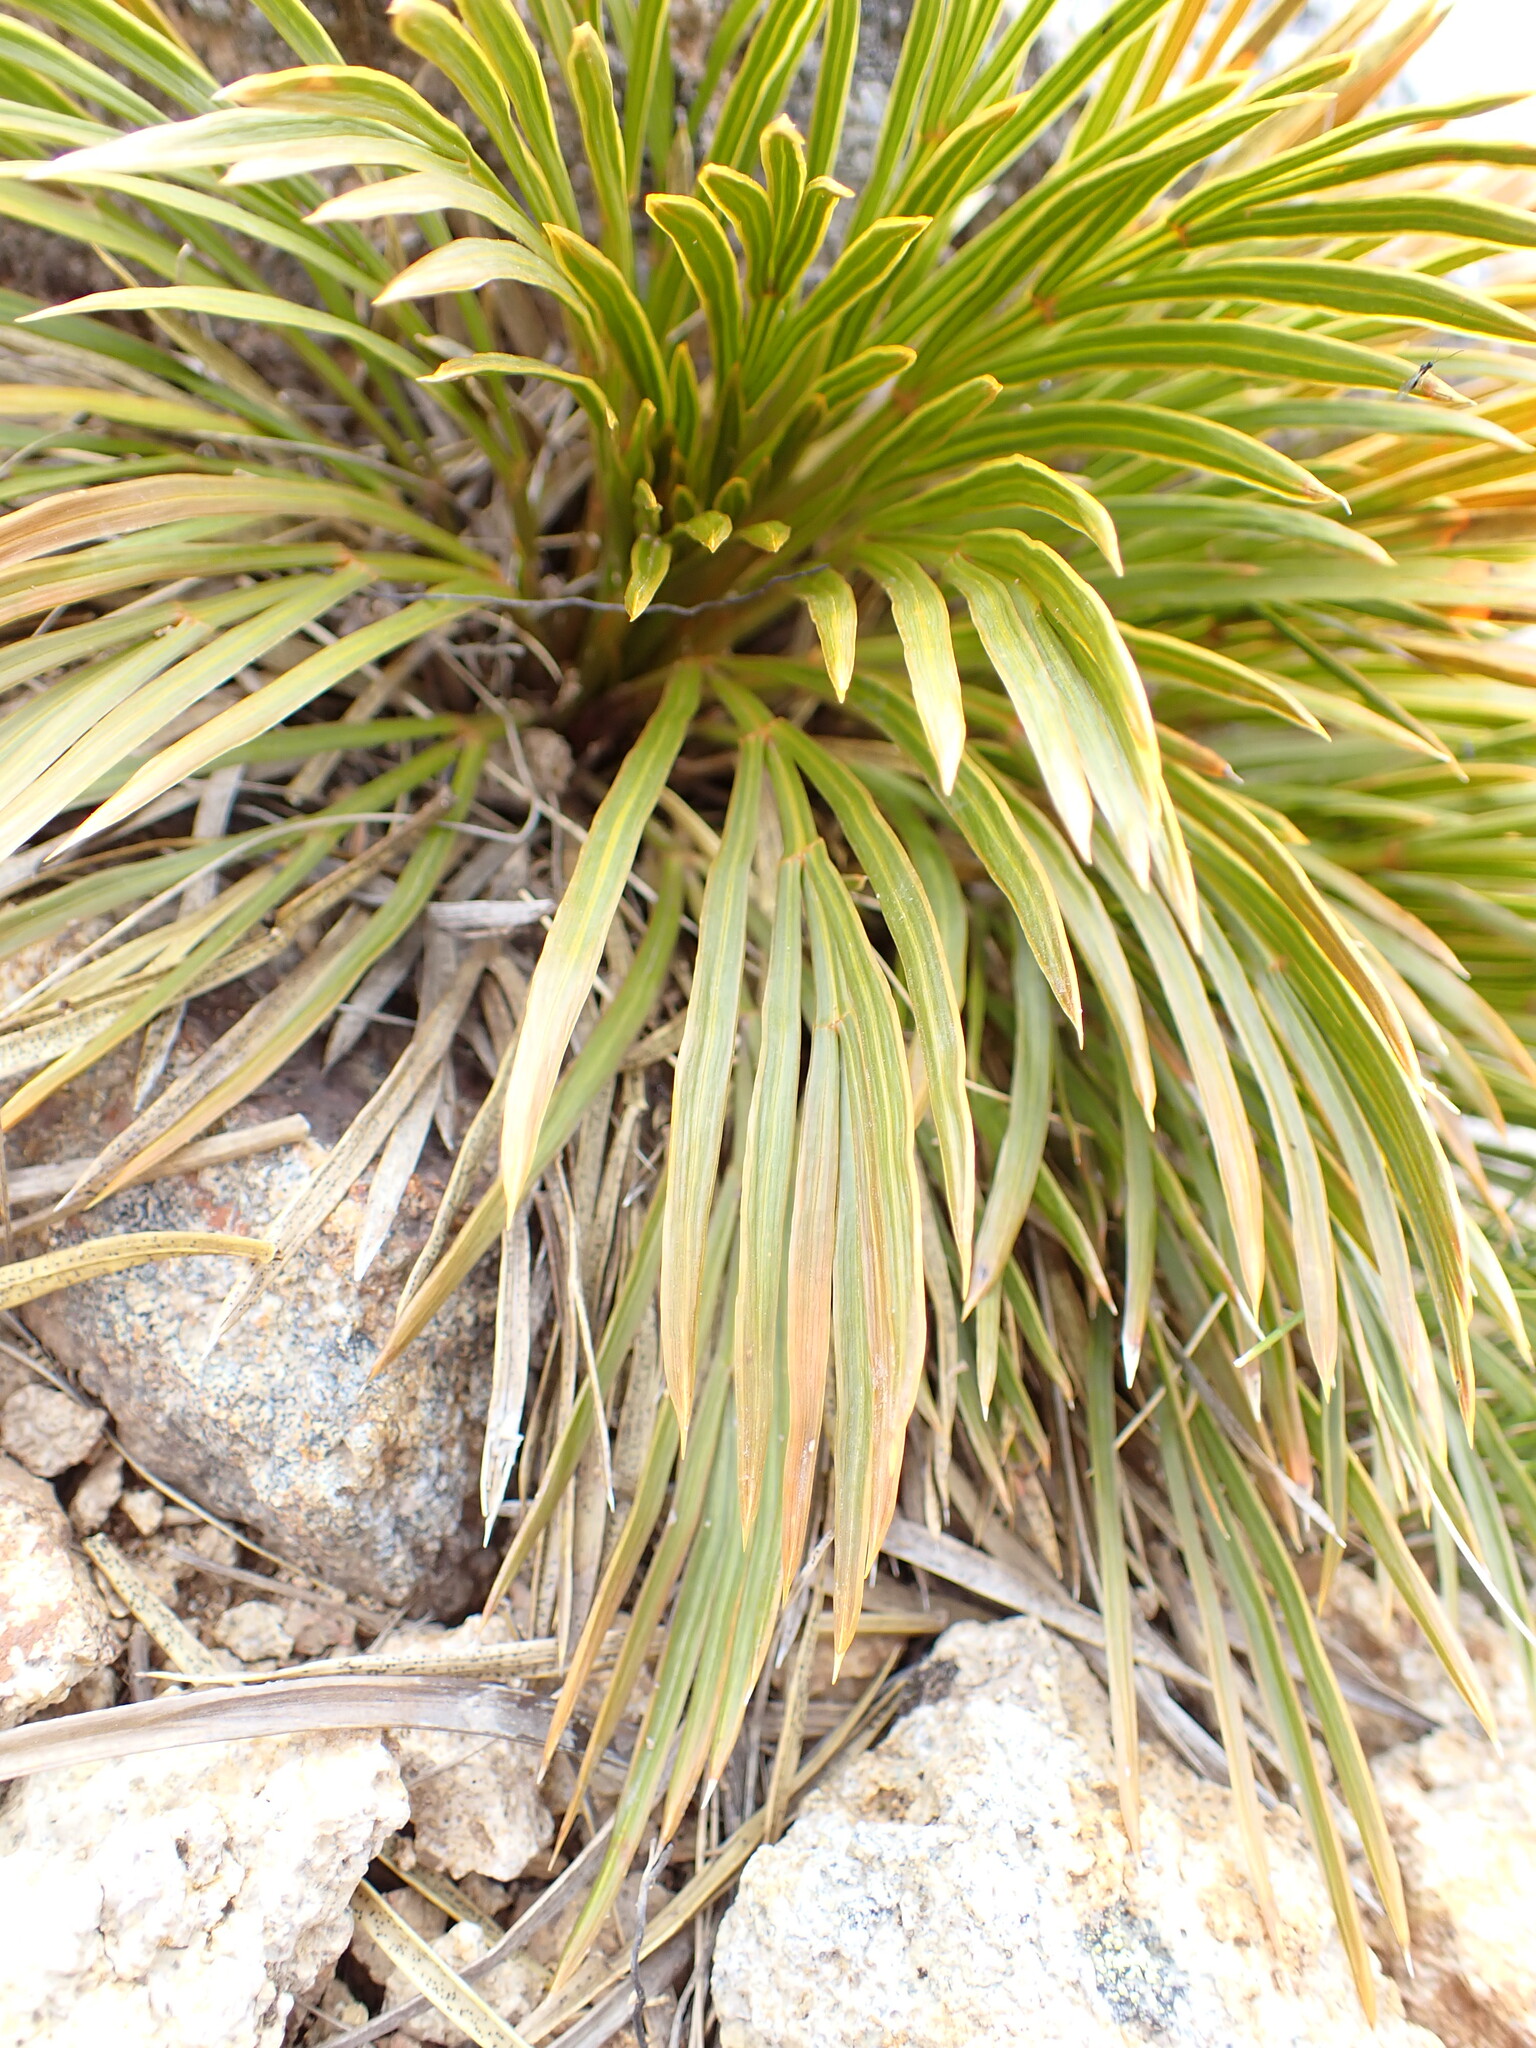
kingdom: Plantae
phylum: Tracheophyta
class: Magnoliopsida
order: Apiales
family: Apiaceae
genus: Aciphylla
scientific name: Aciphylla montana
